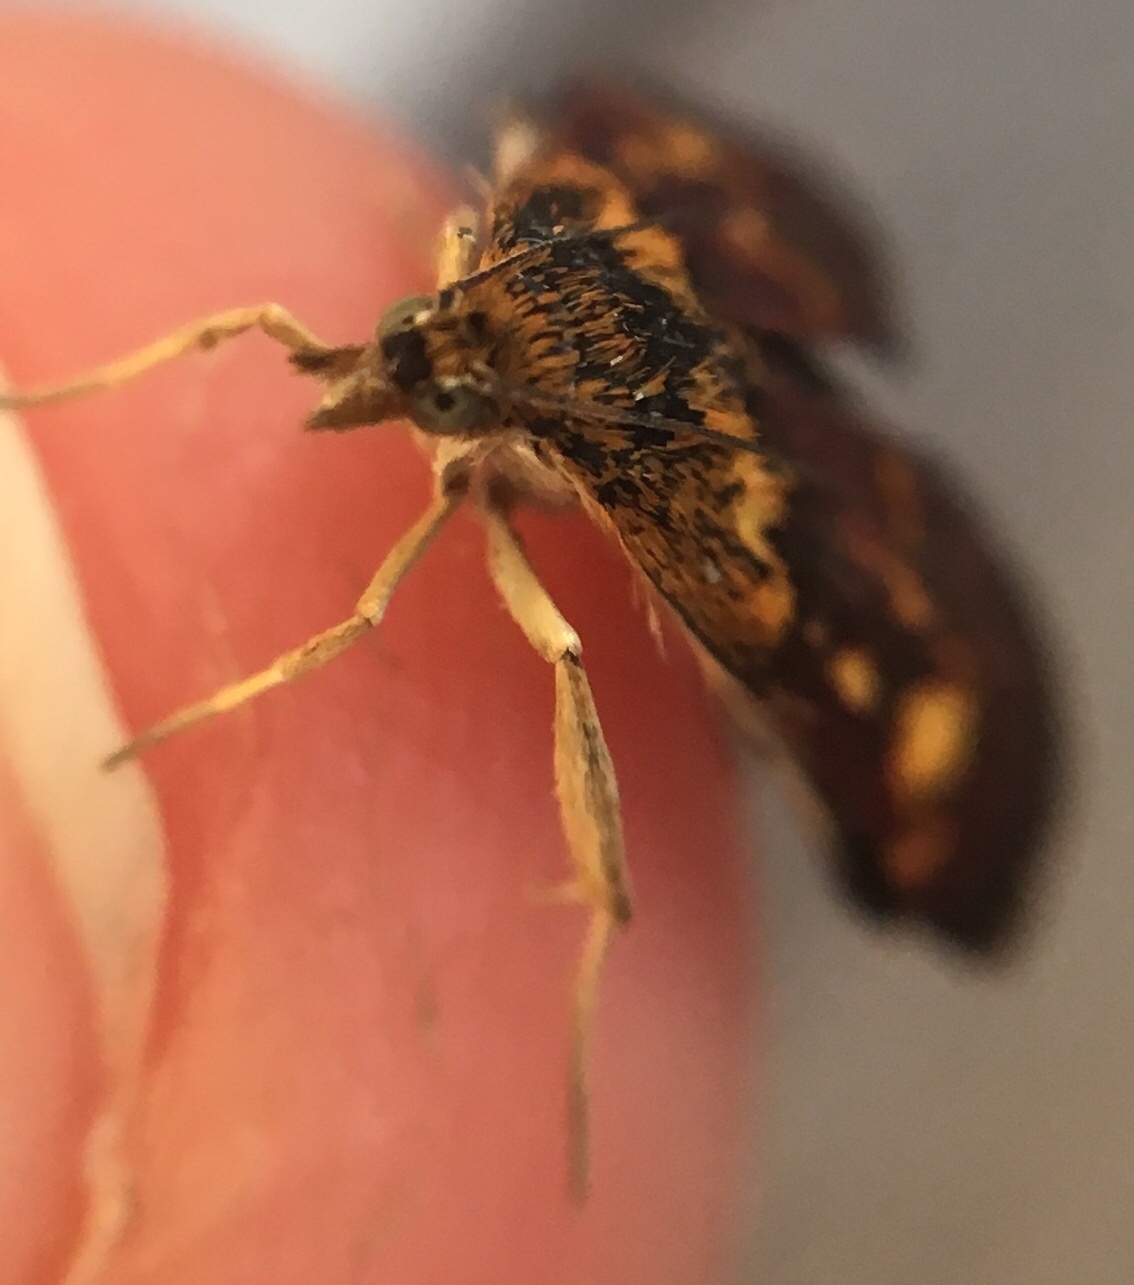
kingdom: Animalia
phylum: Arthropoda
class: Insecta
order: Lepidoptera
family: Crambidae
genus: Pyrausta
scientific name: Pyrausta orphisalis
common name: Orange mint moth
